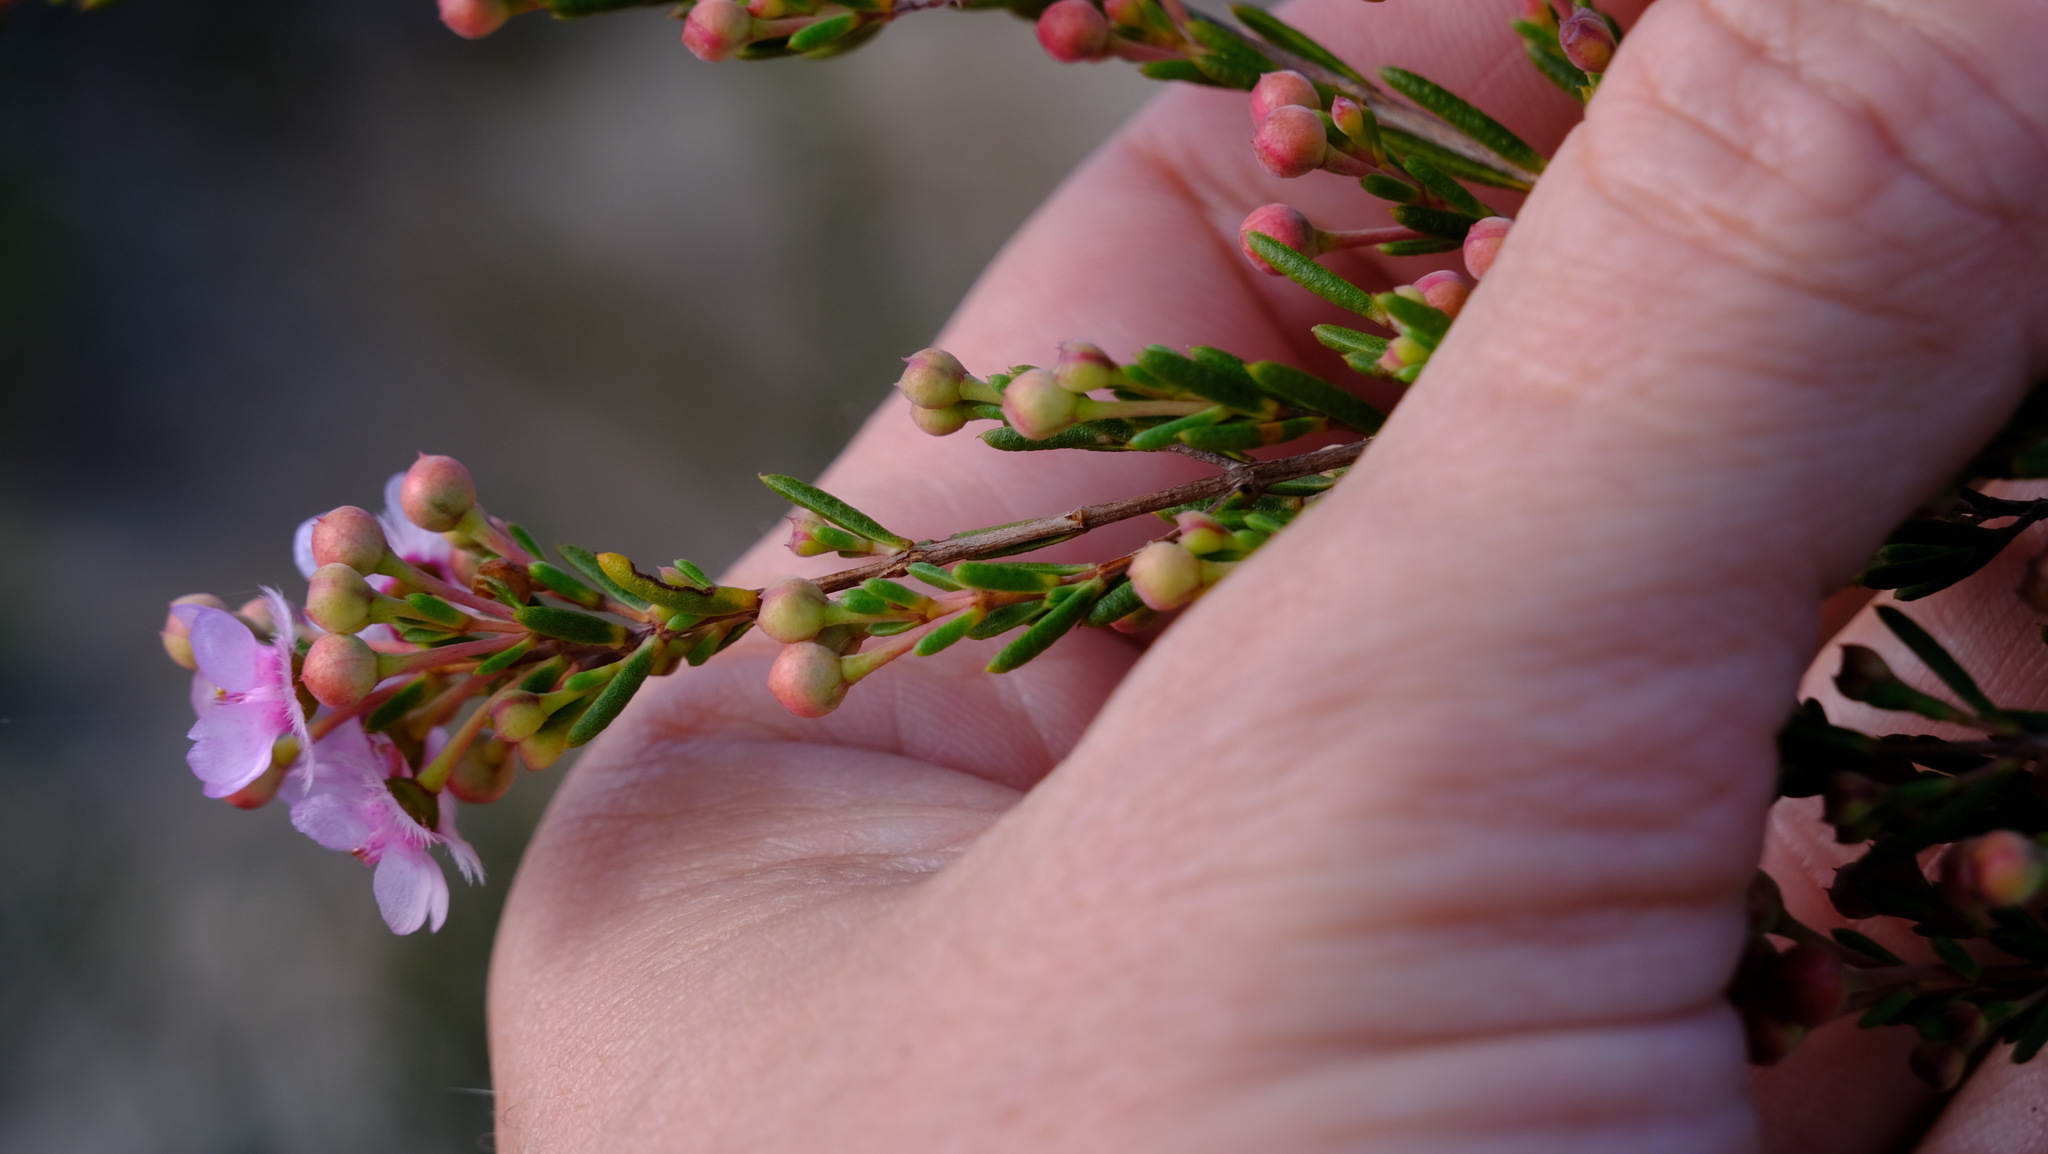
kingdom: Plantae
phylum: Tracheophyta
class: Magnoliopsida
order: Myrtales
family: Myrtaceae
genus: Verticordia
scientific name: Verticordia picta
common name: Painted feather-flower
